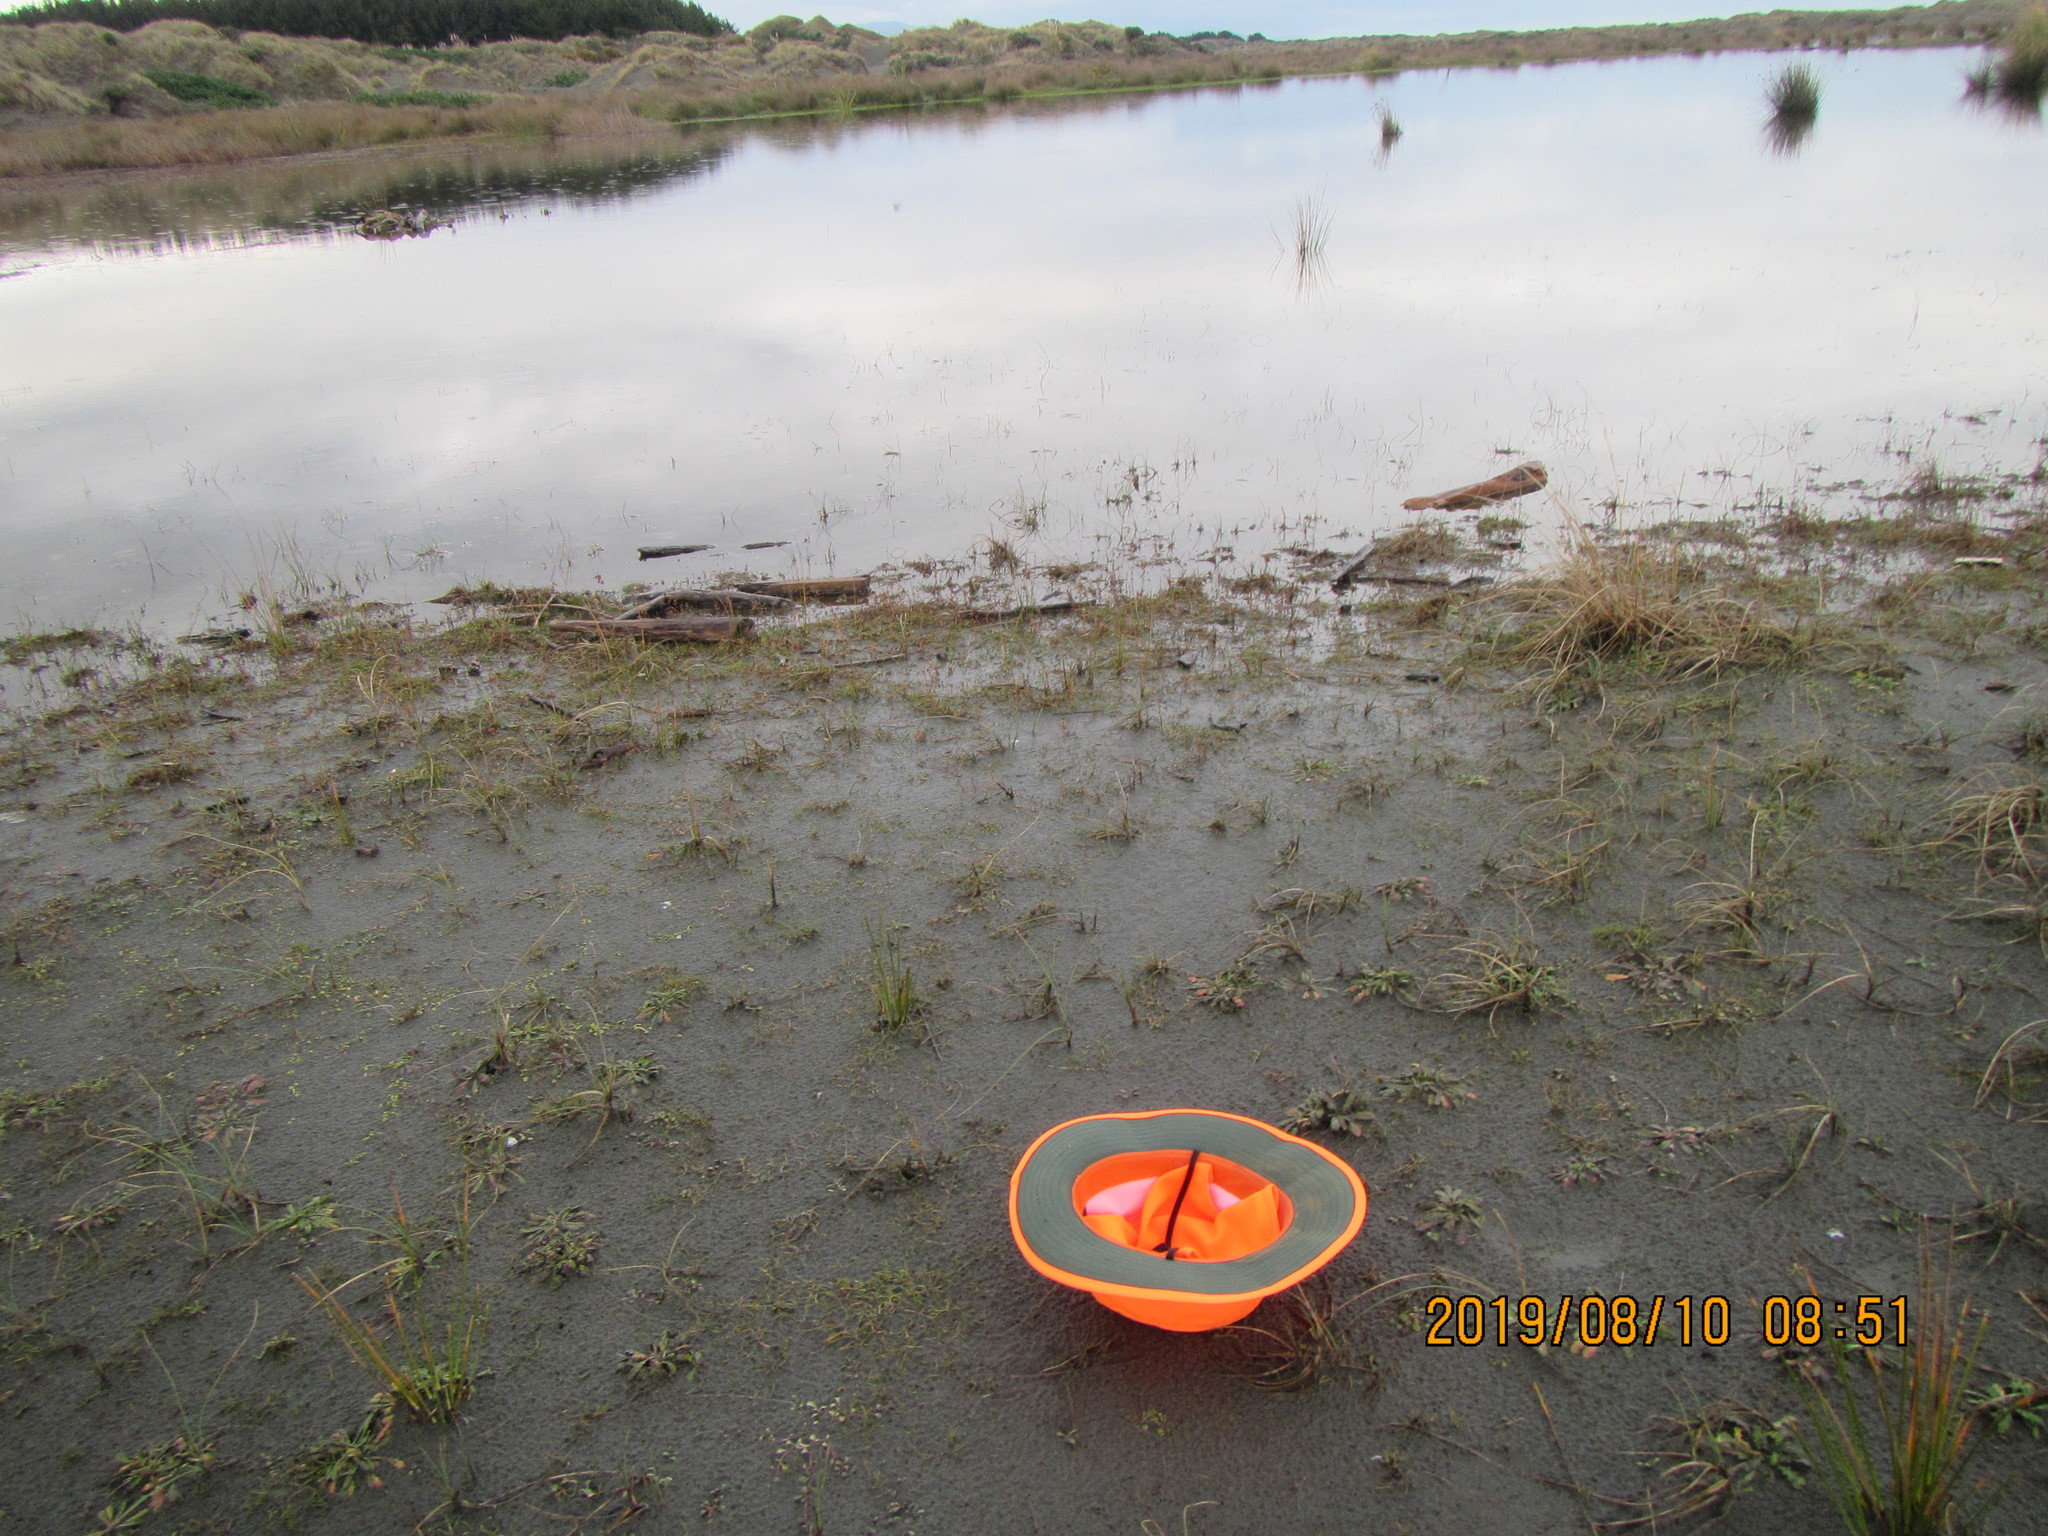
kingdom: Plantae
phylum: Tracheophyta
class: Magnoliopsida
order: Apiales
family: Apiaceae
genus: Lilaeopsis
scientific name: Lilaeopsis novae-zelandiae
